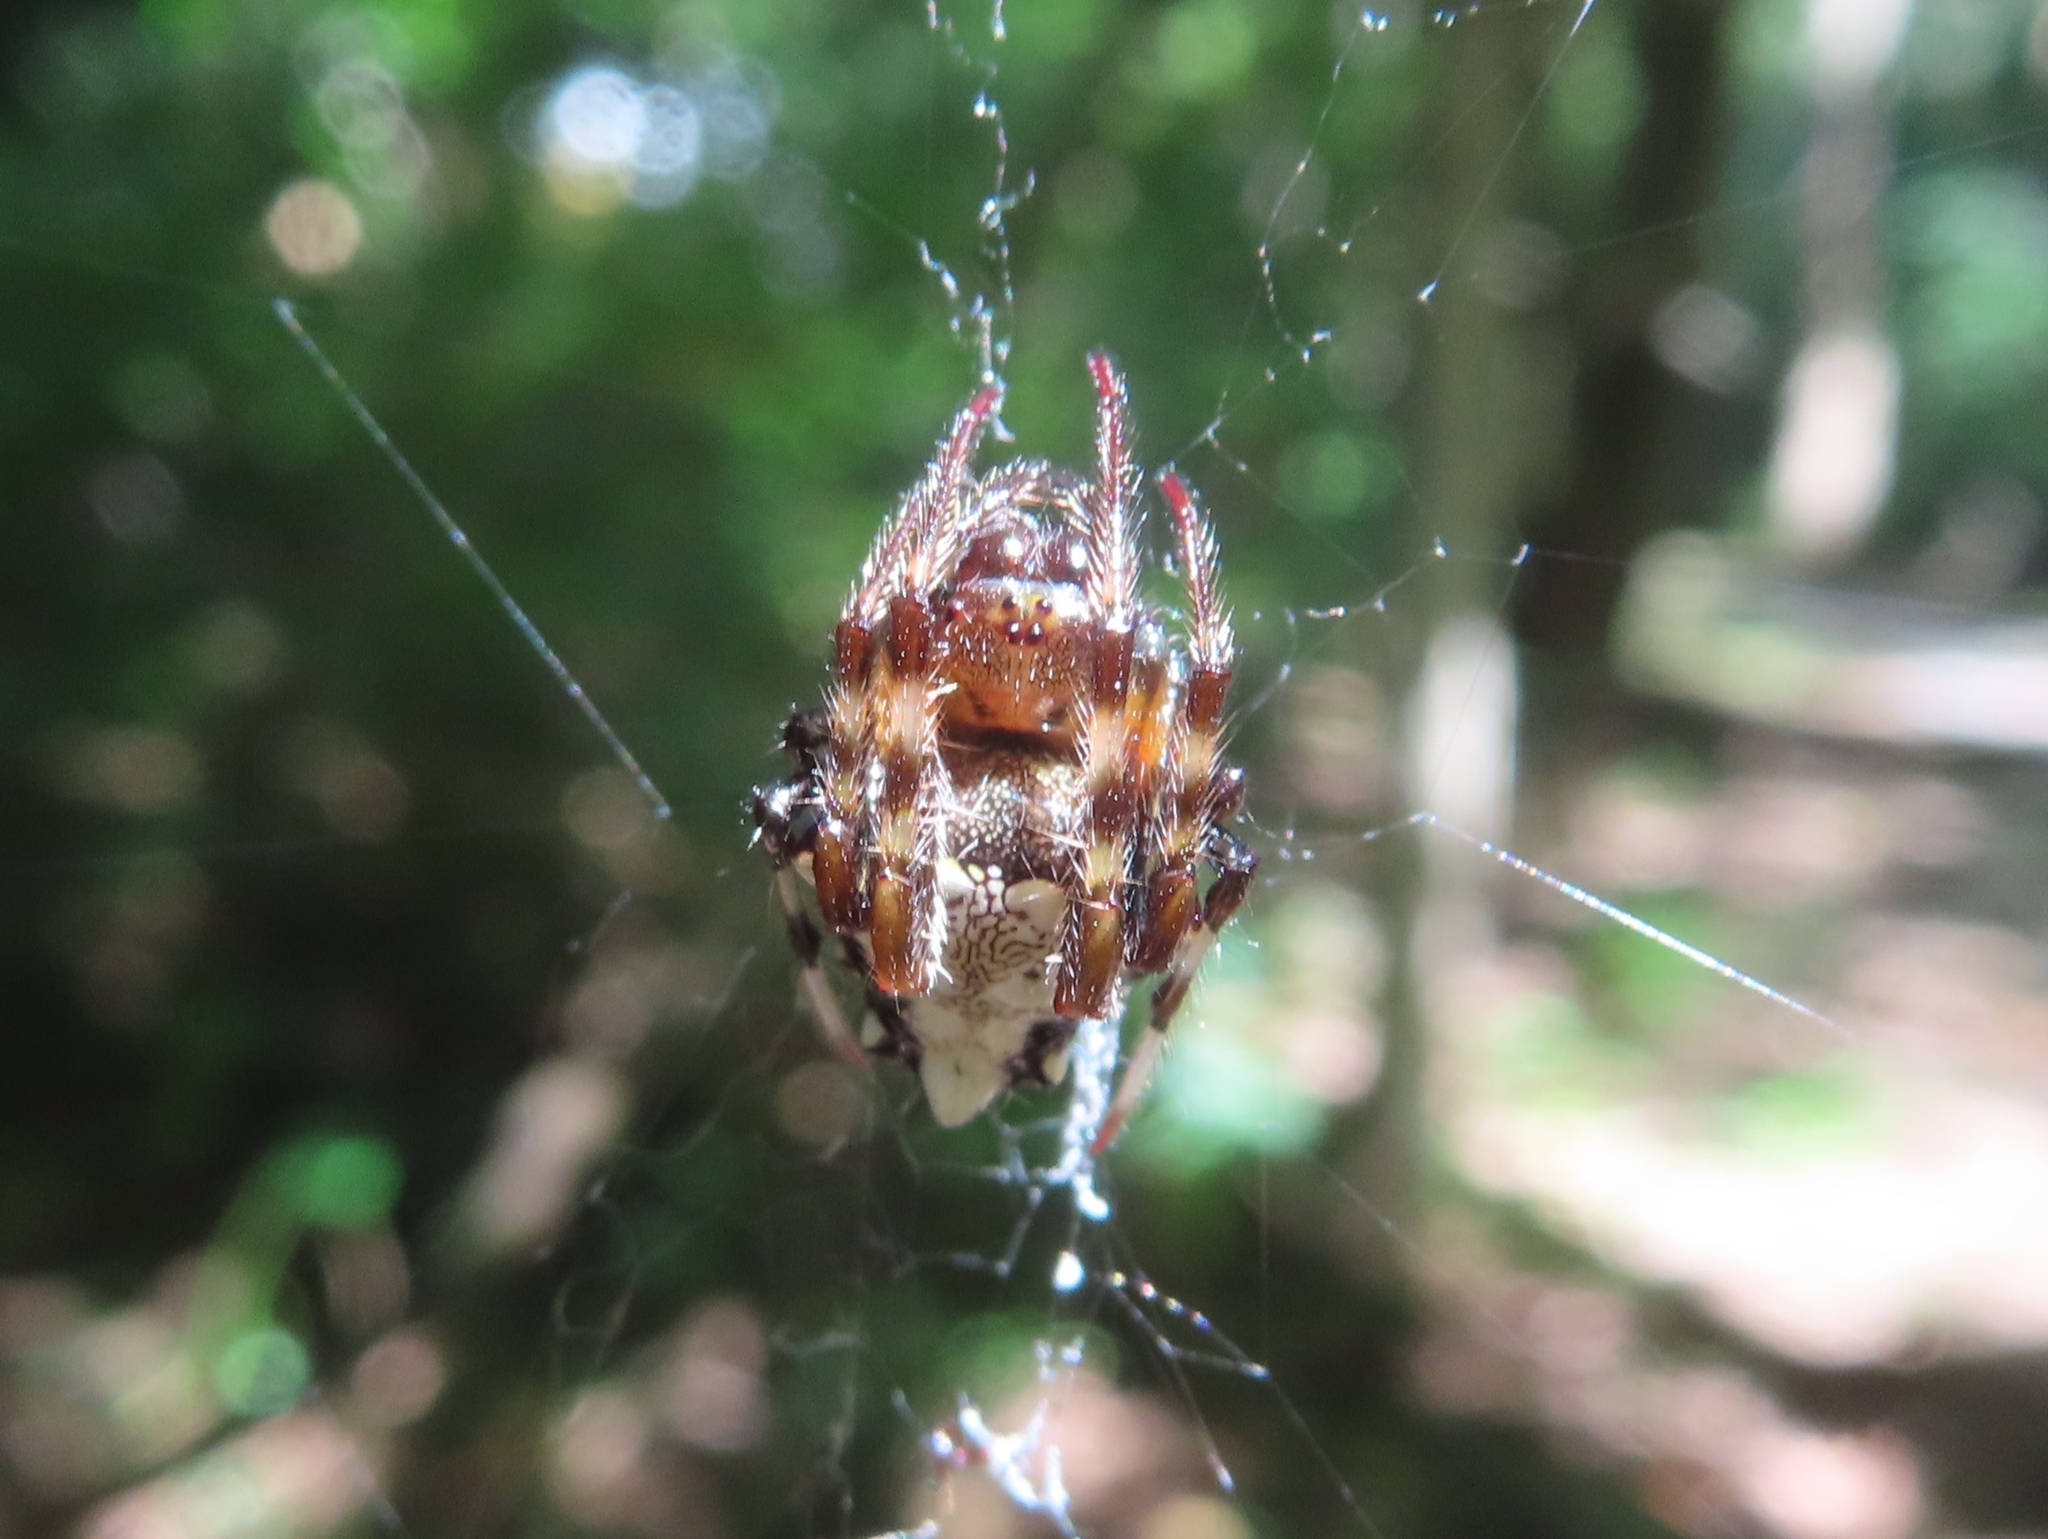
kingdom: Animalia
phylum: Arthropoda
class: Arachnida
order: Araneae
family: Araneidae
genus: Verrucosa
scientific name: Verrucosa arenata
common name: Orb weavers
